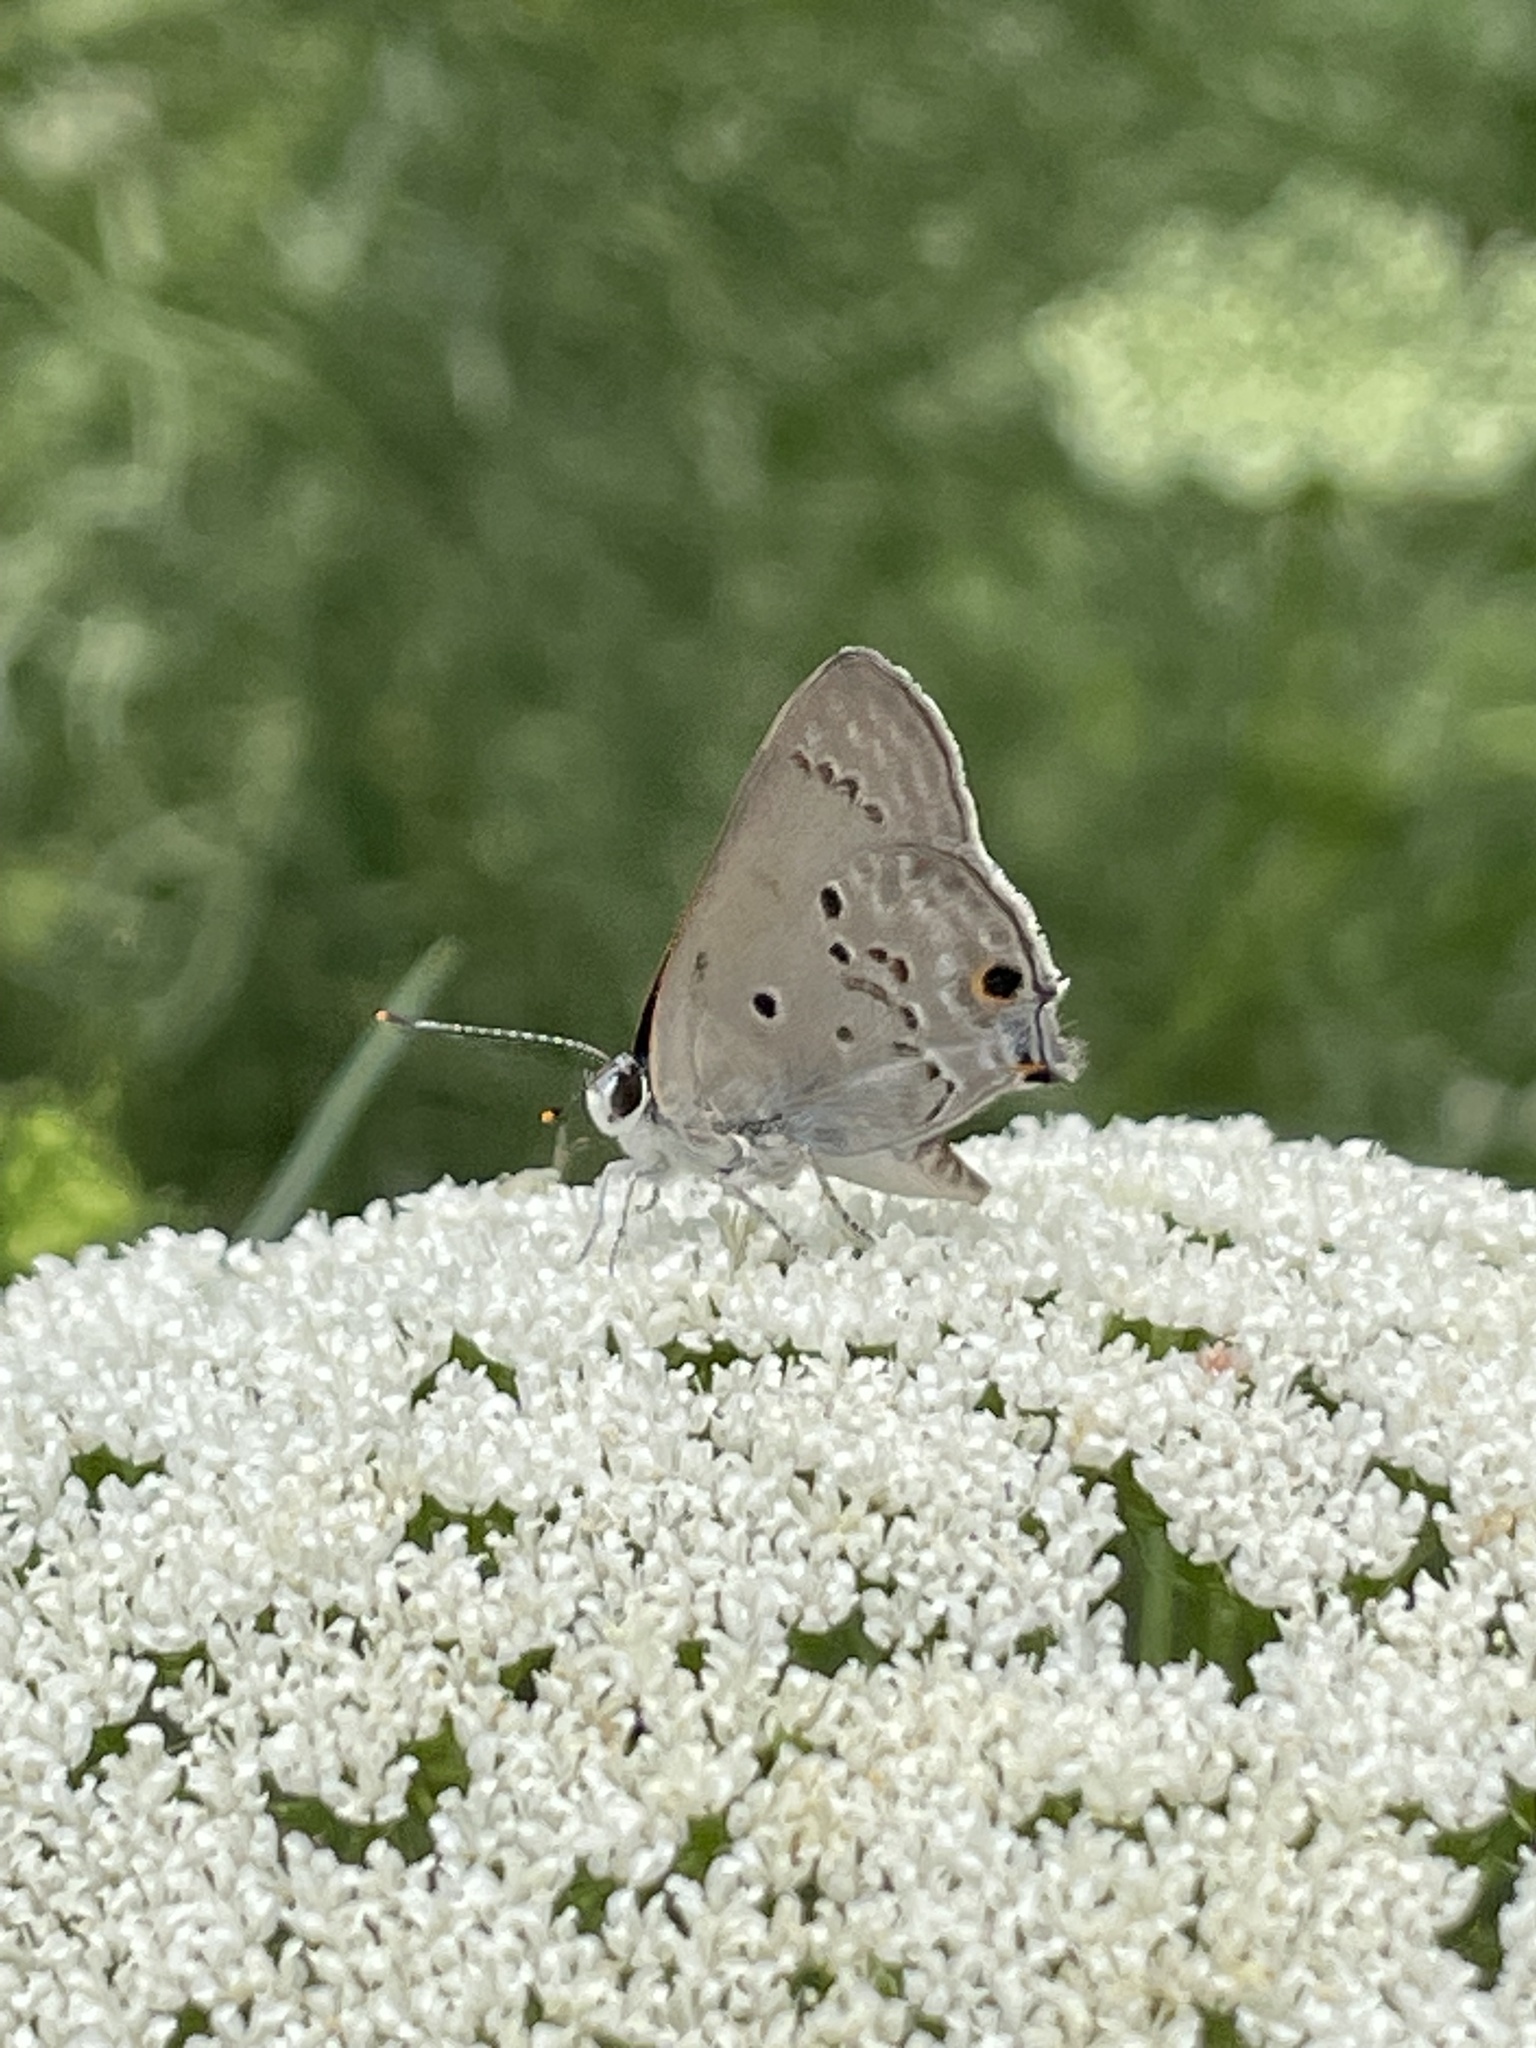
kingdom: Animalia
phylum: Arthropoda
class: Insecta
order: Lepidoptera
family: Lycaenidae
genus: Callicista
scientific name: Callicista columella
